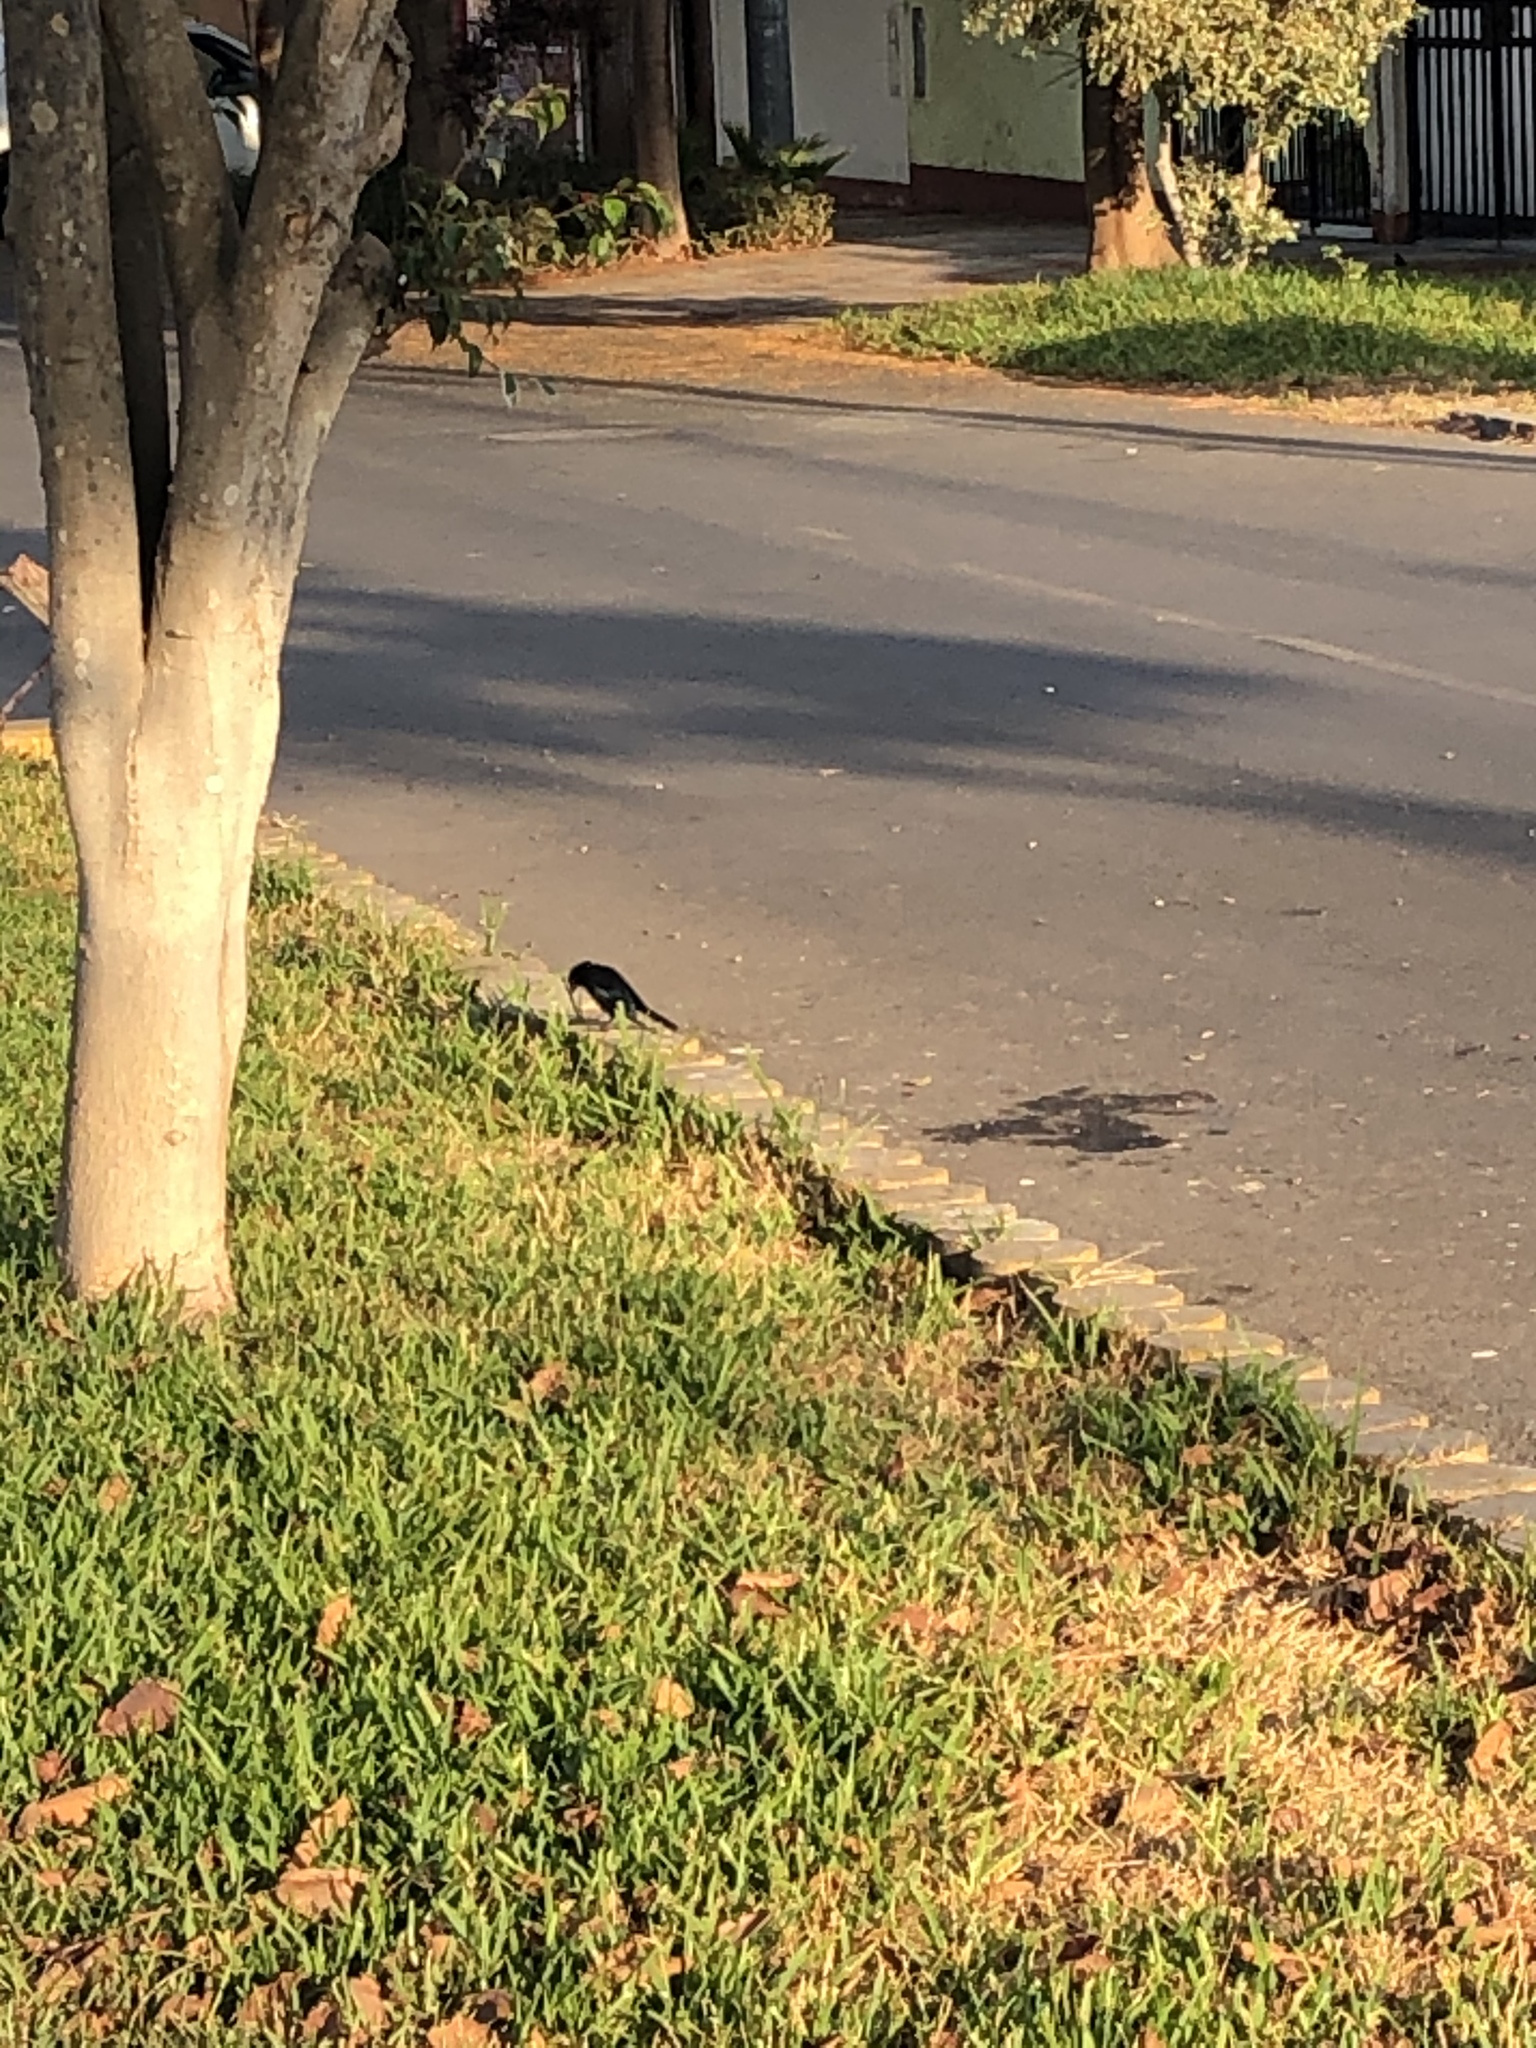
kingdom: Animalia
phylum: Chordata
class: Aves
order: Passeriformes
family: Icteridae
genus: Molothrus
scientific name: Molothrus bonariensis
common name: Shiny cowbird
